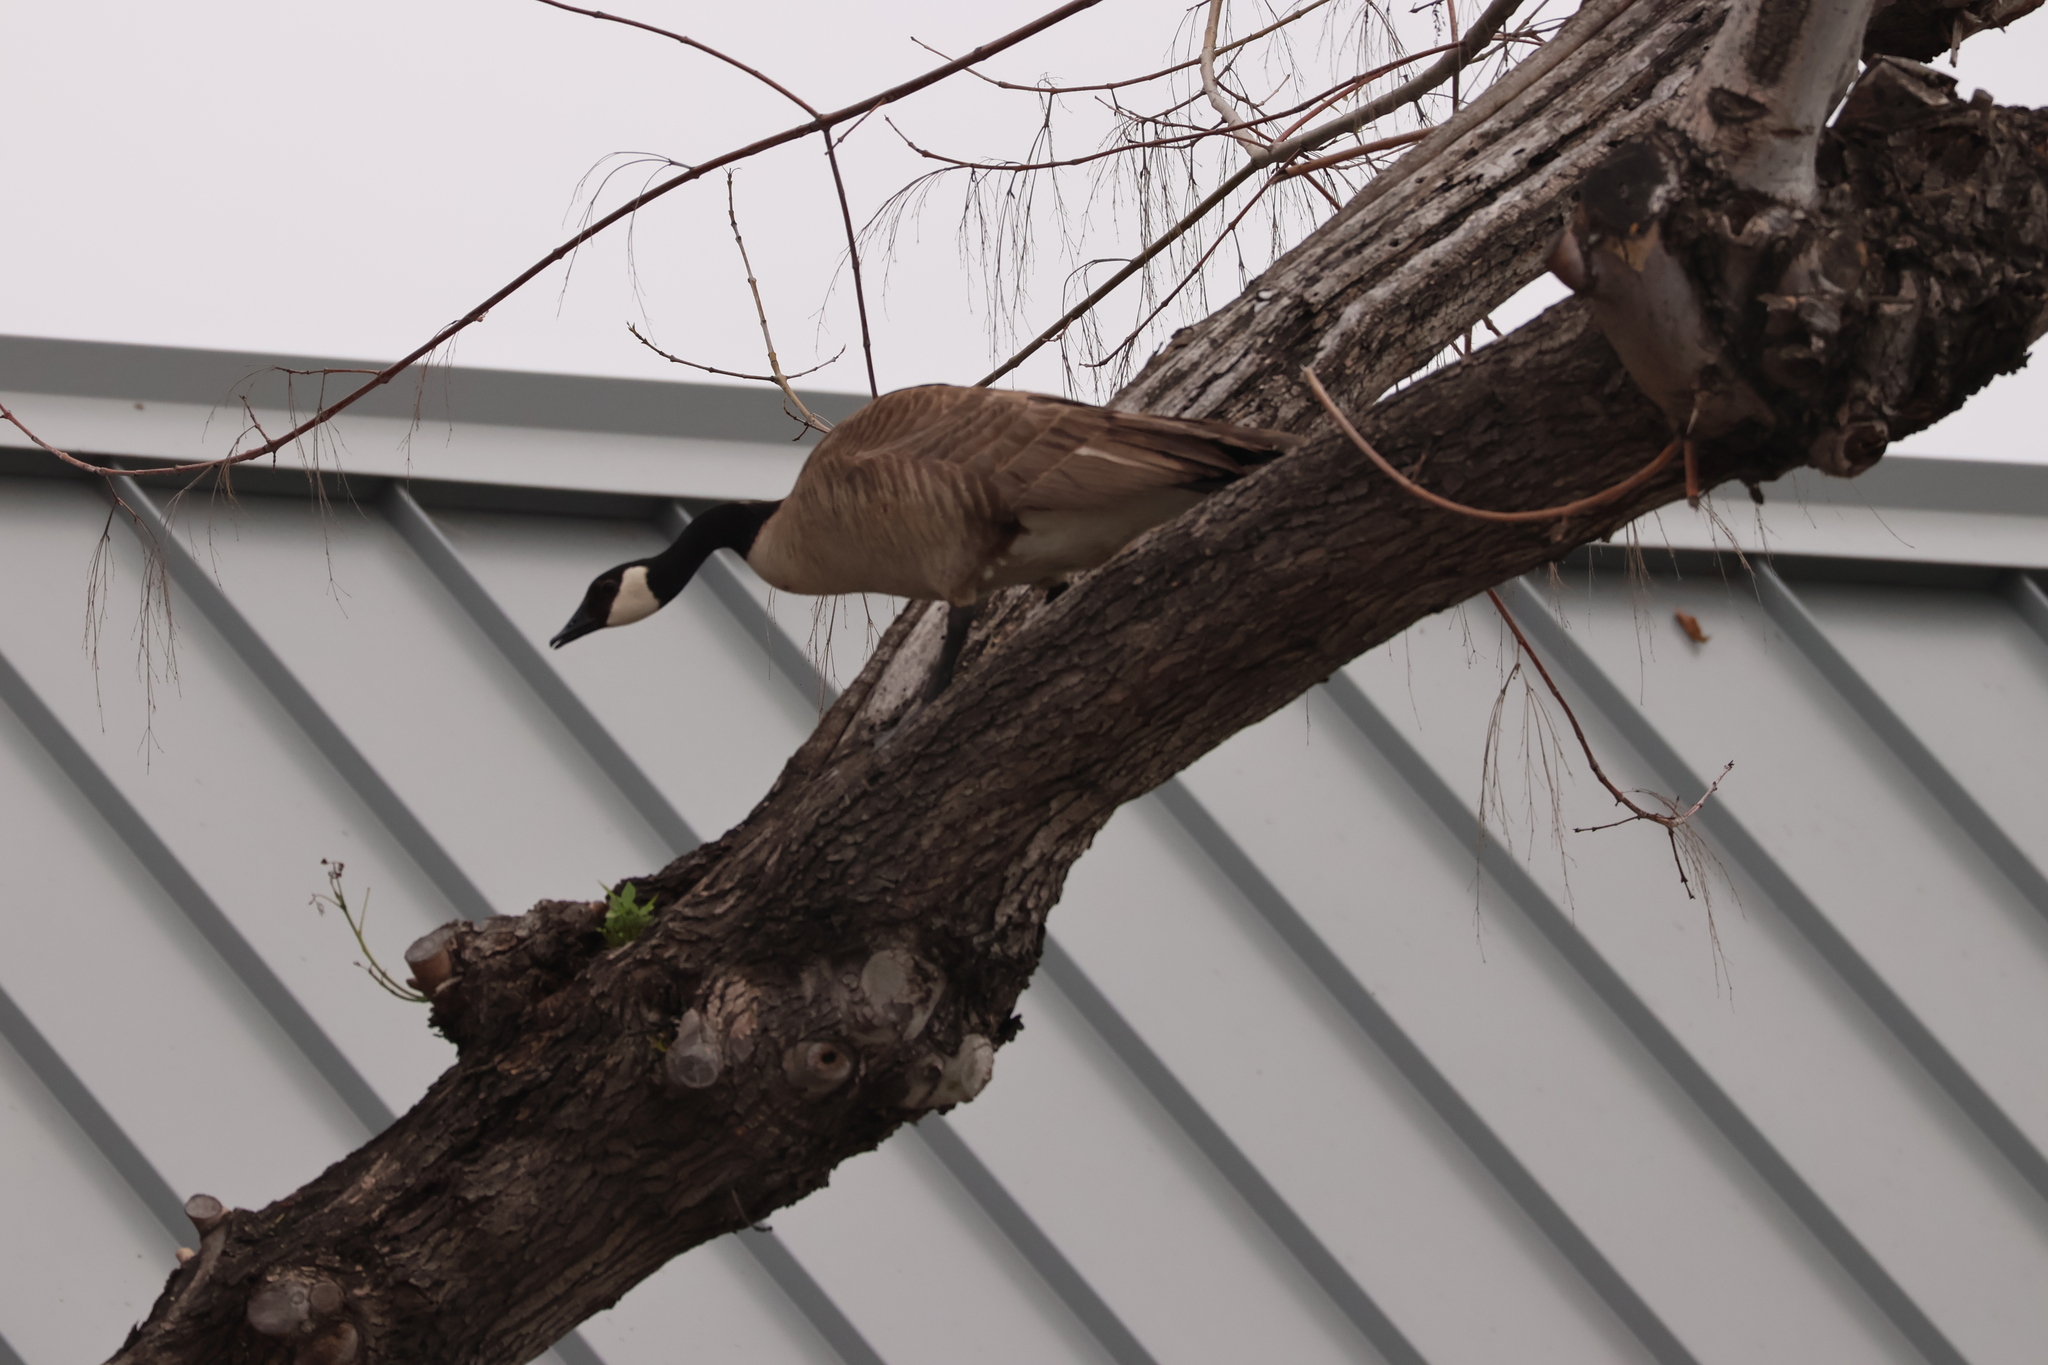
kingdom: Animalia
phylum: Chordata
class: Aves
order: Anseriformes
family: Anatidae
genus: Branta
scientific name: Branta canadensis
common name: Canada goose
